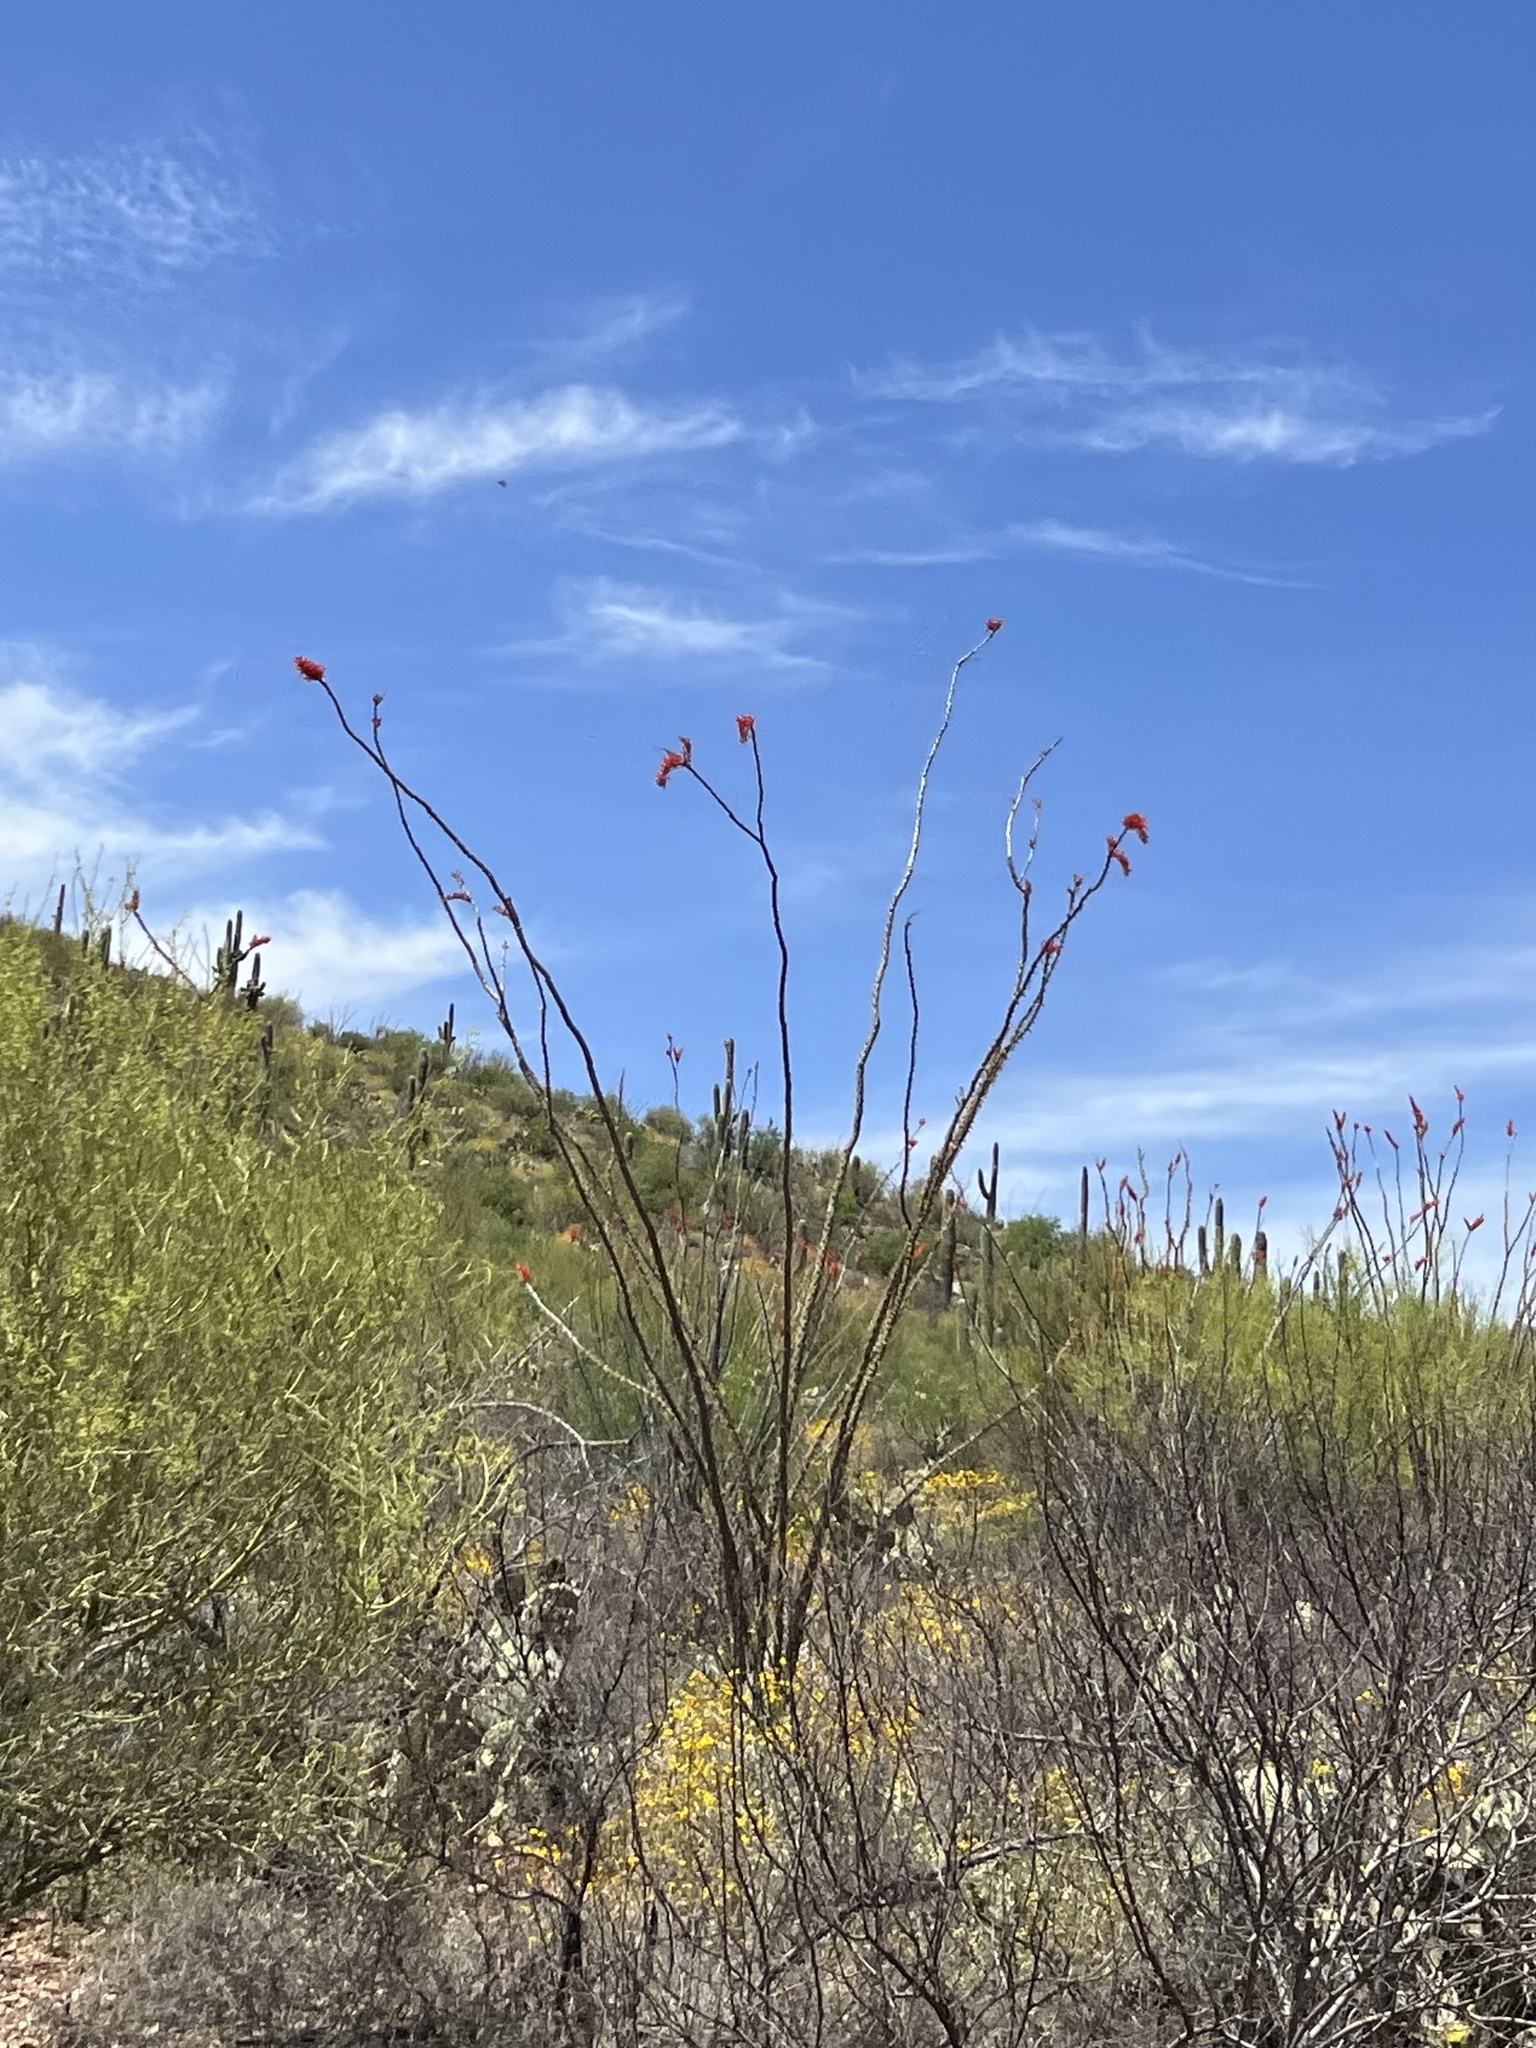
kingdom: Plantae
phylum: Tracheophyta
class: Magnoliopsida
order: Ericales
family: Fouquieriaceae
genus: Fouquieria
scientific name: Fouquieria splendens
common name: Vine-cactus
